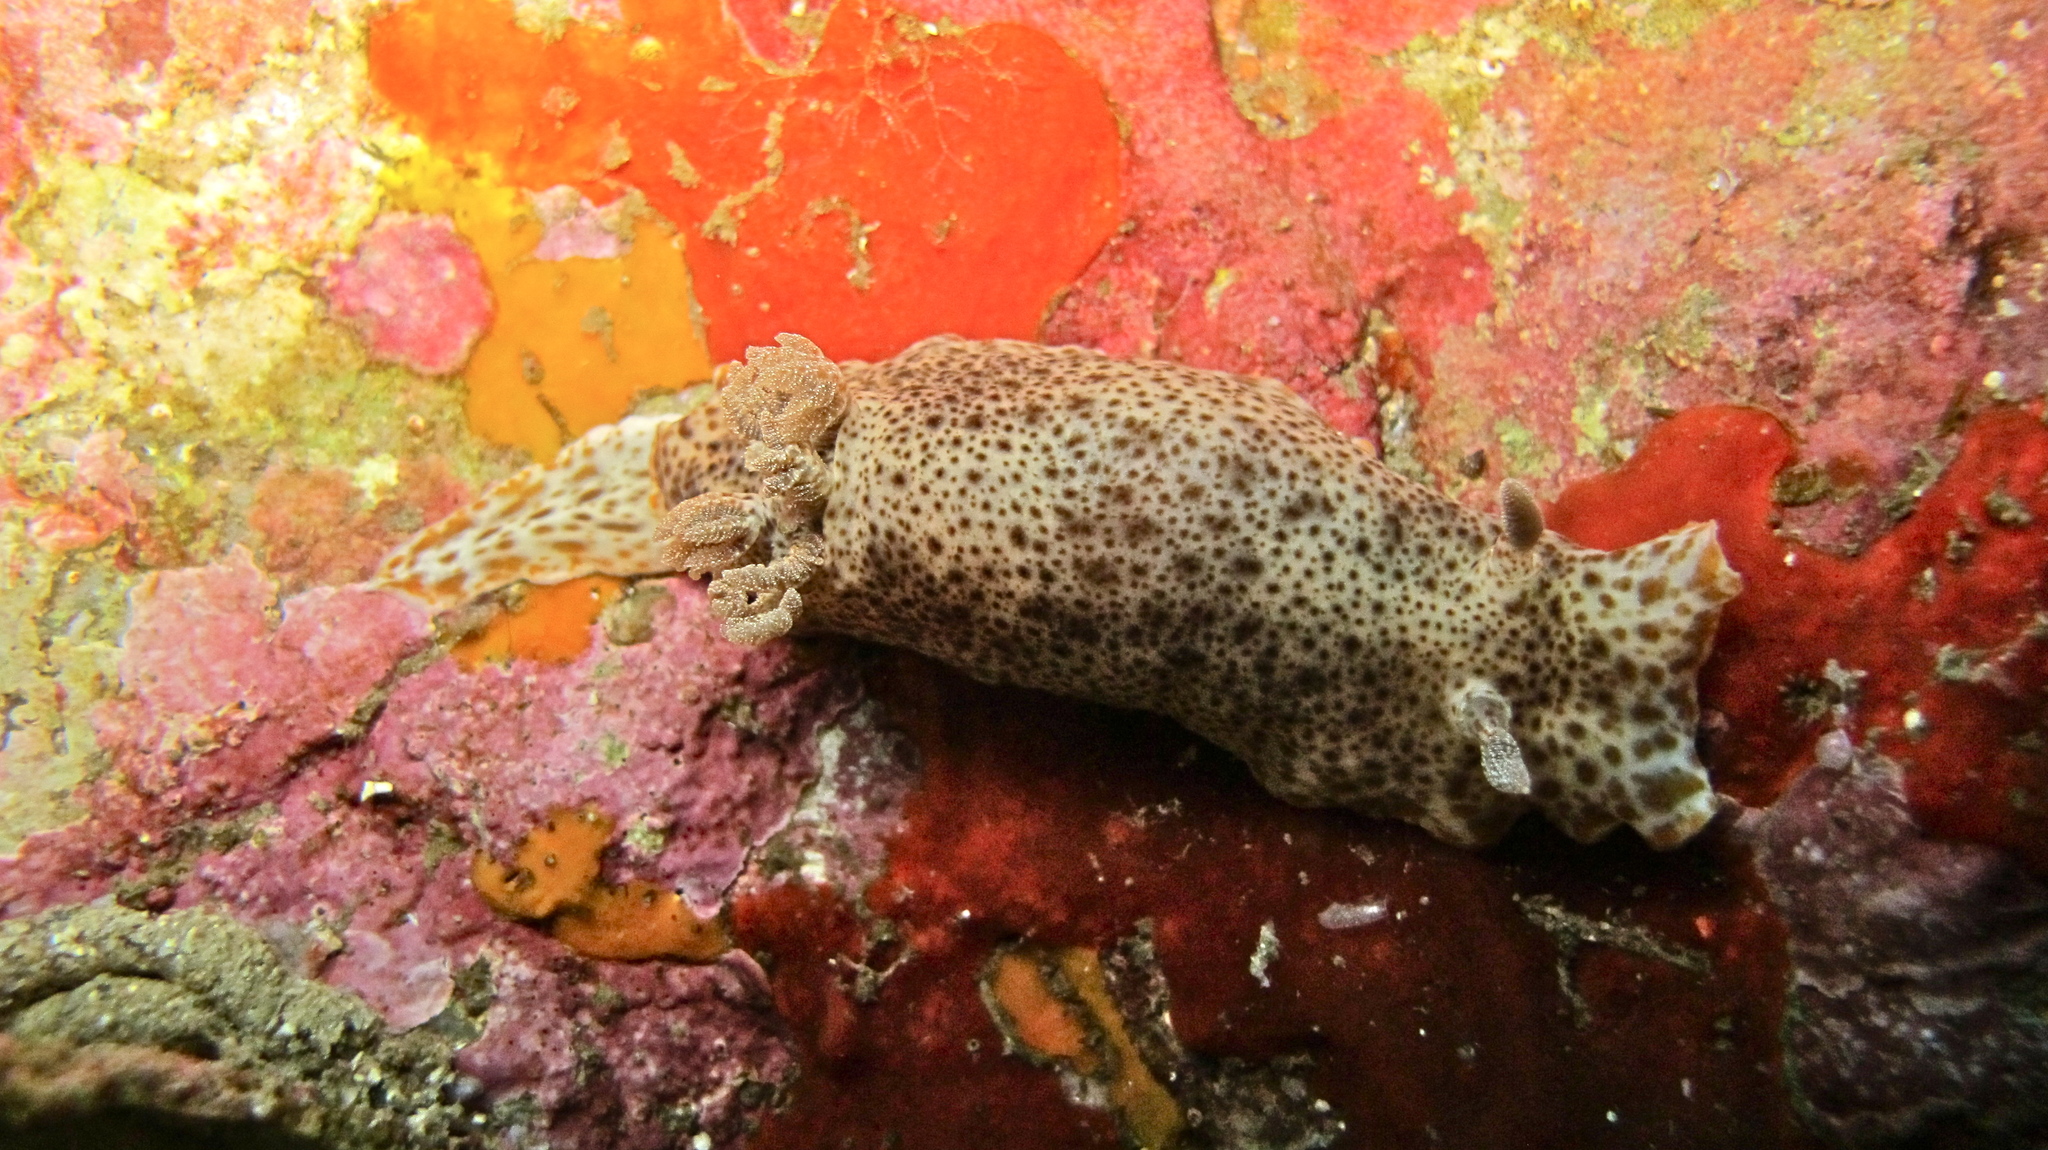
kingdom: Animalia
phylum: Mollusca
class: Gastropoda
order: Nudibranchia
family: Chromodorididae
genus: Chromodoris
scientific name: Chromodoris mandapamensis
